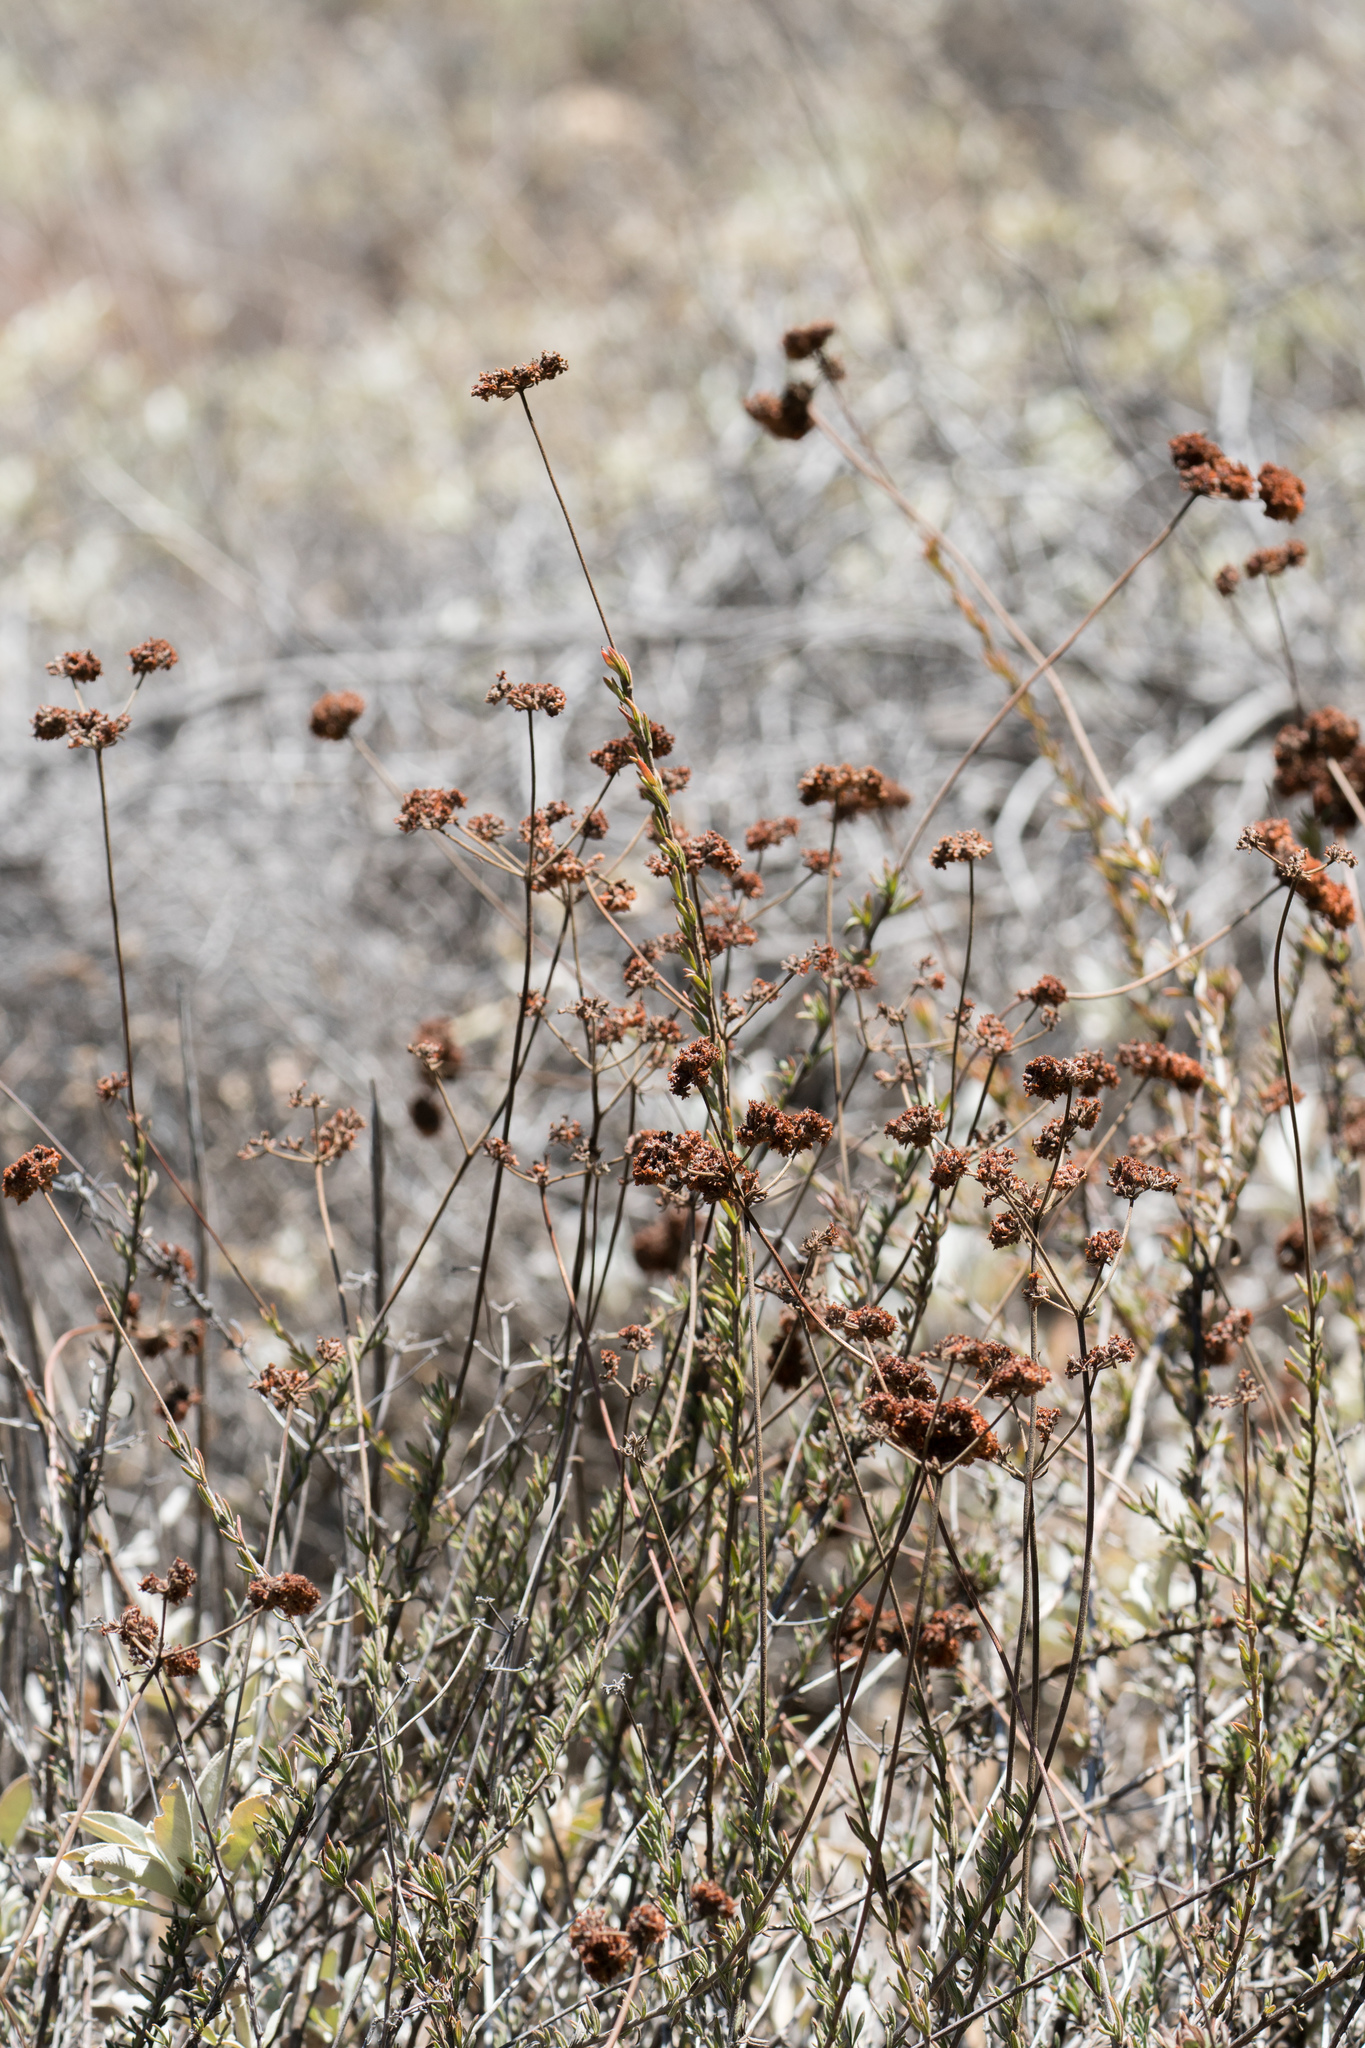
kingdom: Plantae
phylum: Tracheophyta
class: Magnoliopsida
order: Caryophyllales
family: Polygonaceae
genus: Eriogonum
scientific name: Eriogonum fasciculatum
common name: California wild buckwheat
